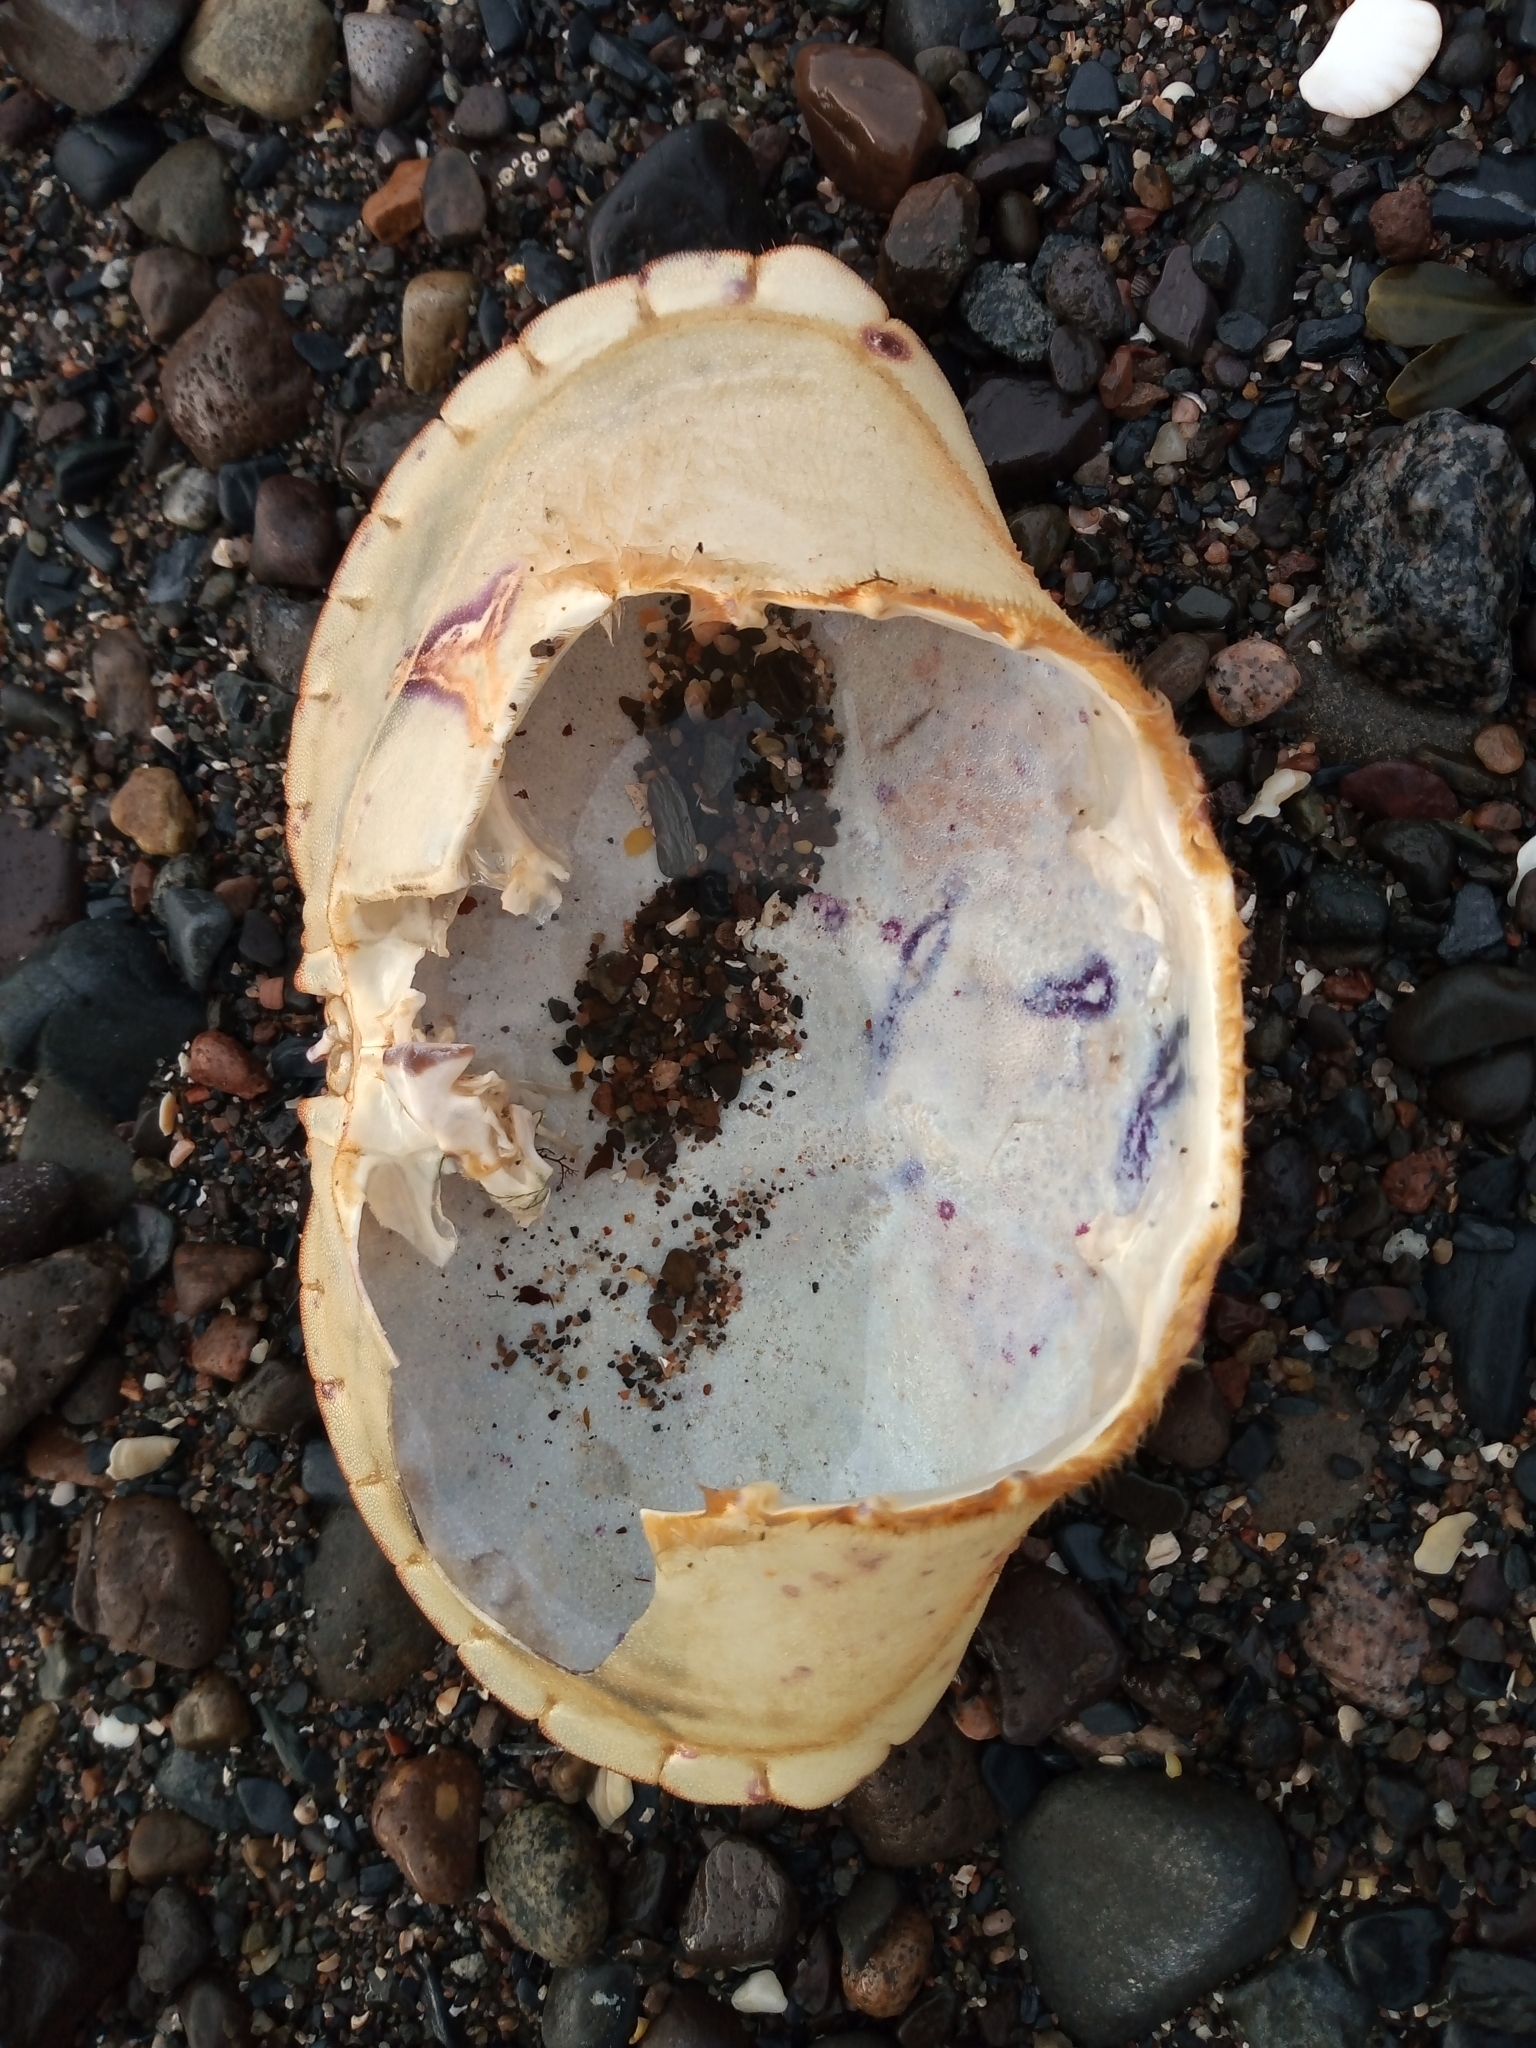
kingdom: Animalia
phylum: Arthropoda
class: Malacostraca
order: Decapoda
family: Cancridae
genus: Cancer
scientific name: Cancer pagurus
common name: Edible crab
